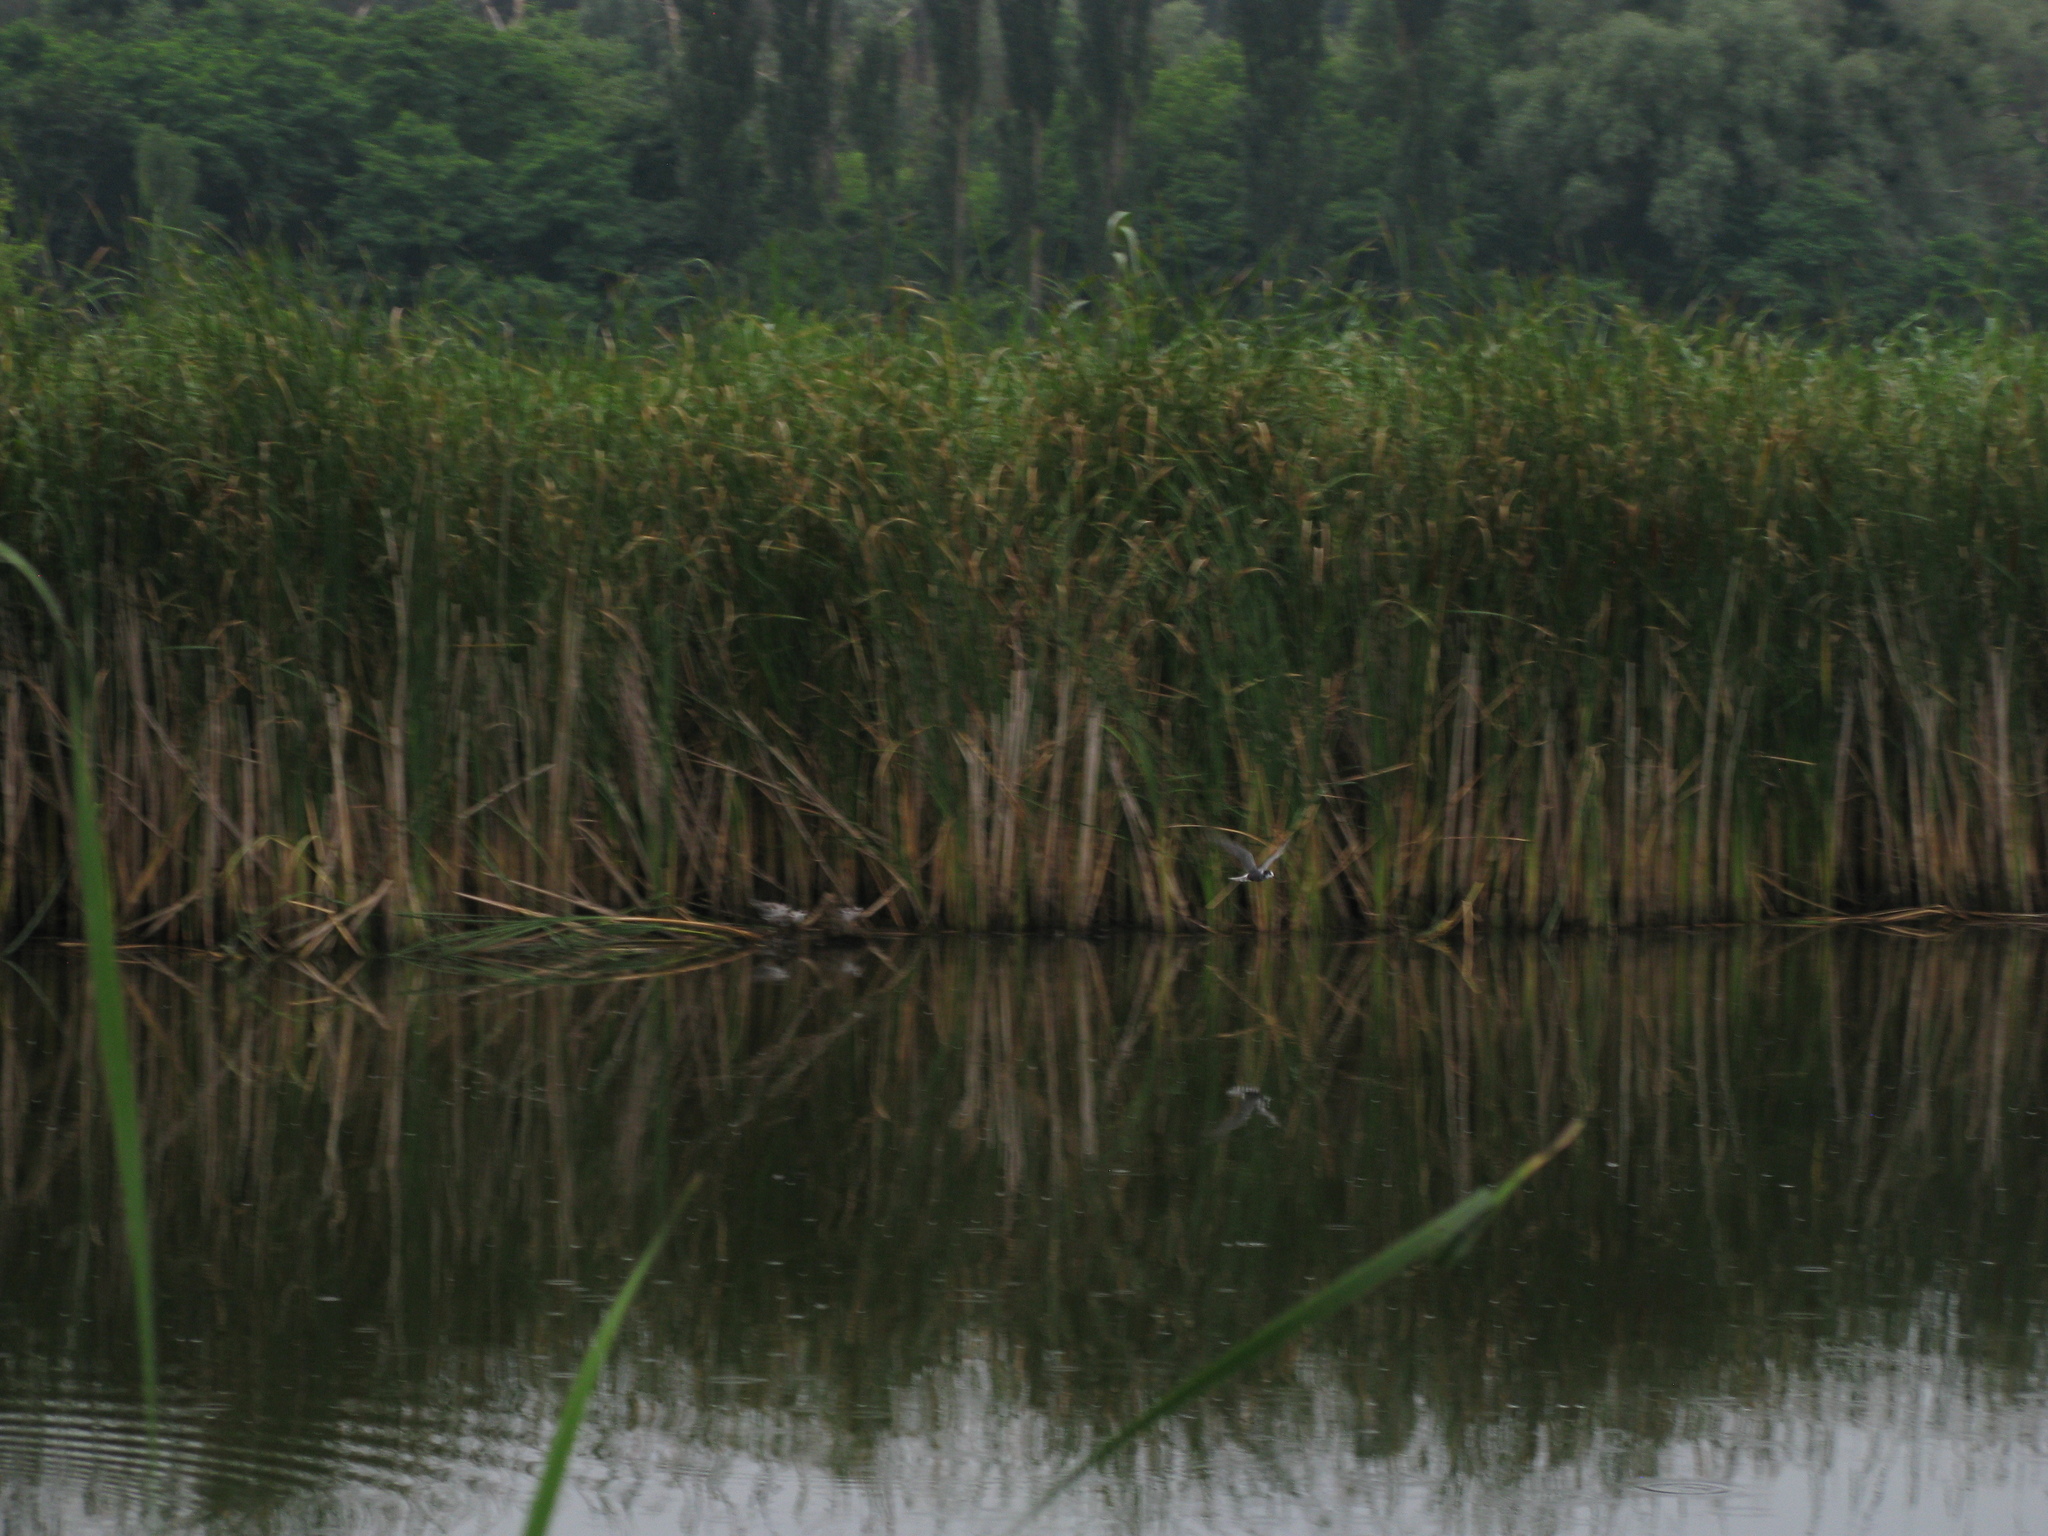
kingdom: Animalia
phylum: Chordata
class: Aves
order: Charadriiformes
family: Laridae
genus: Chlidonias
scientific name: Chlidonias niger
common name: Black tern
